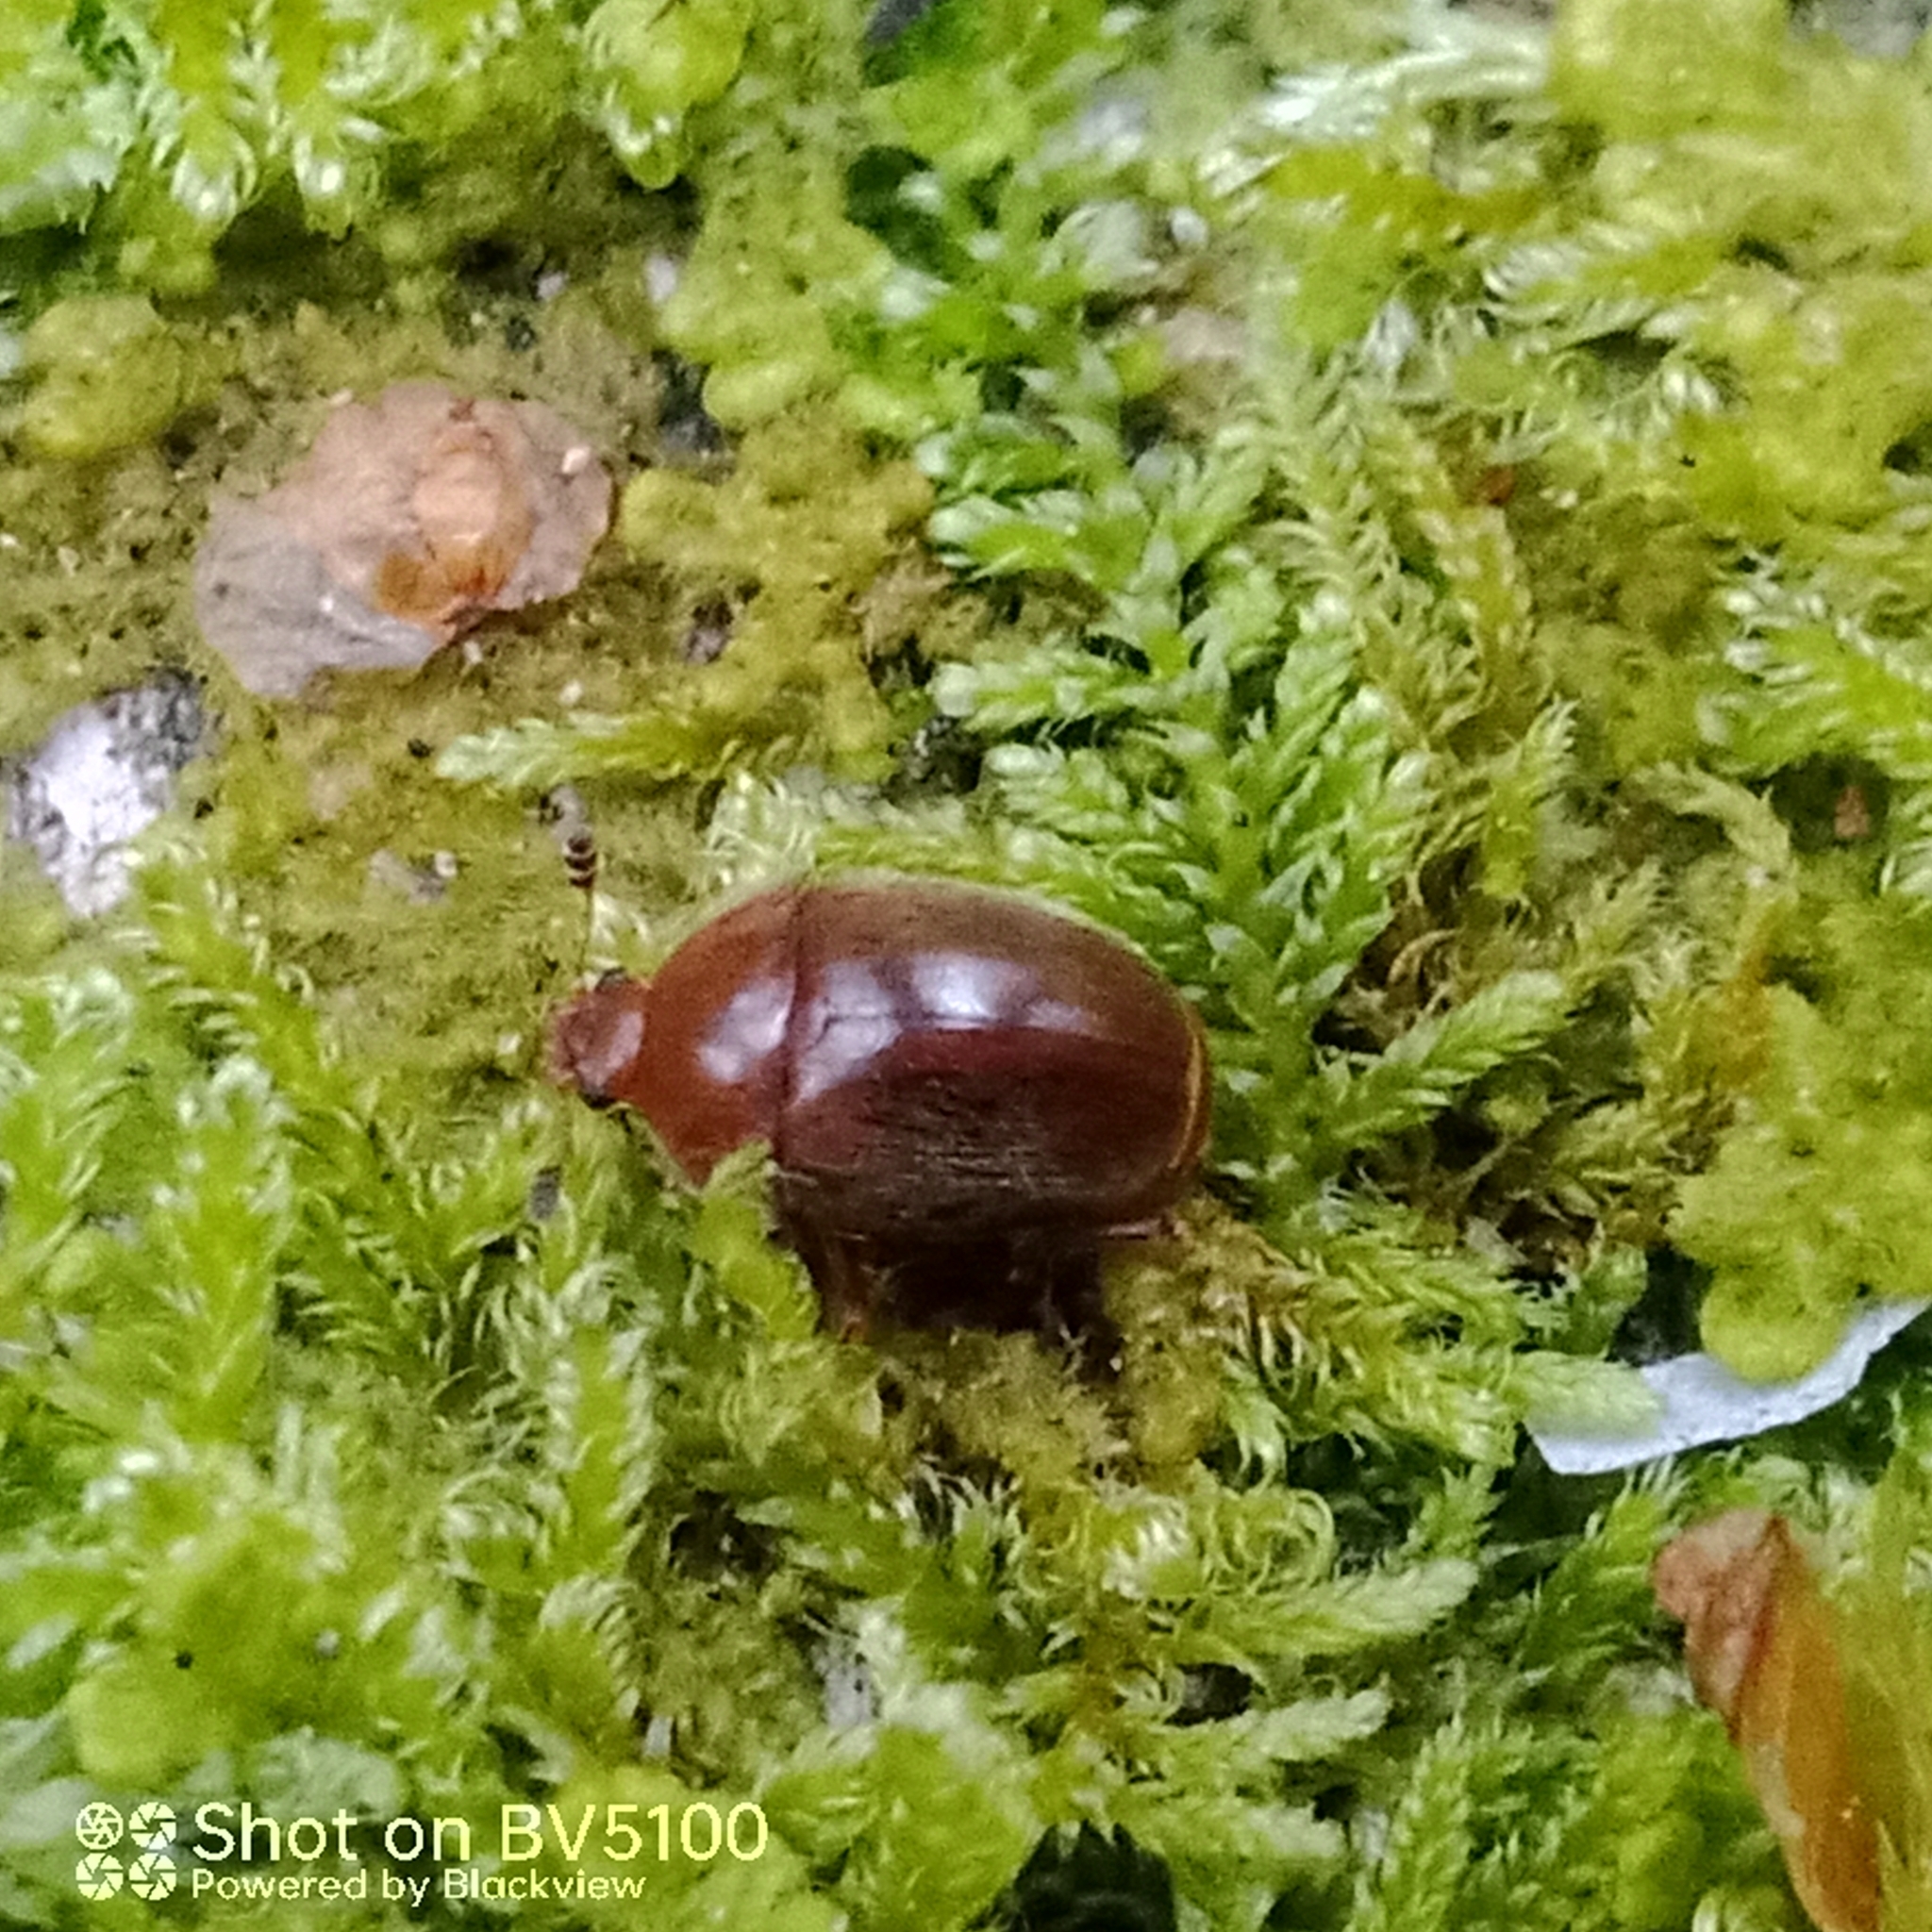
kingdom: Animalia
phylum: Arthropoda
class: Insecta
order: Coleoptera
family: Nitidulidae
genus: Cychramus
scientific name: Cychramus luteus
